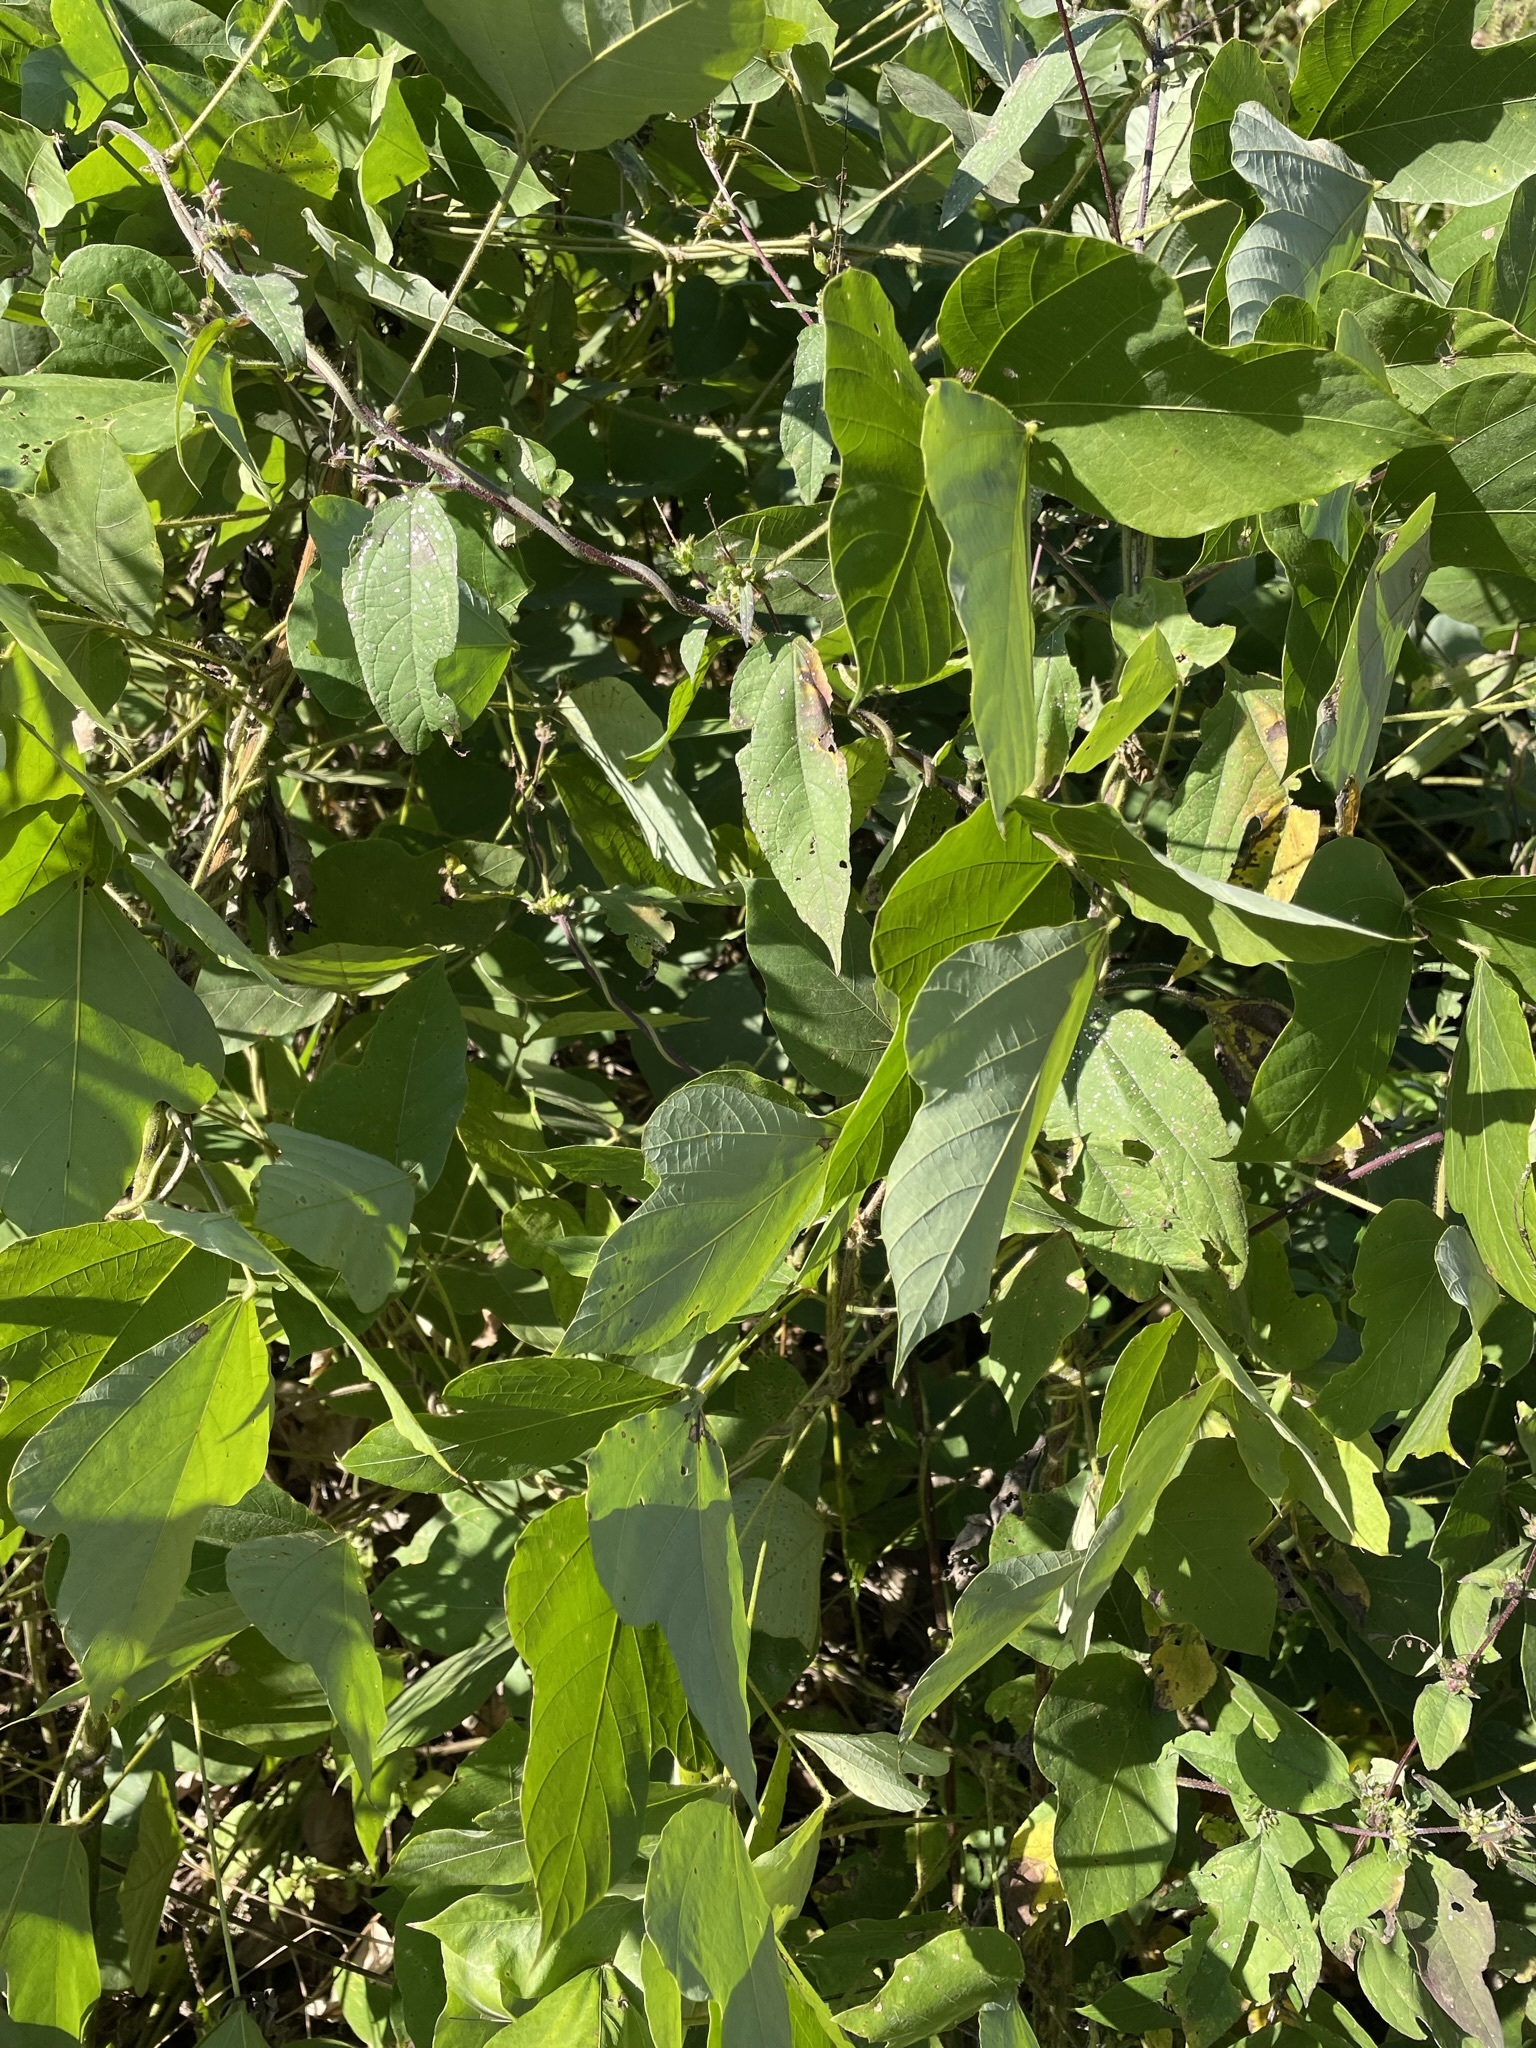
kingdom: Plantae
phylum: Tracheophyta
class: Magnoliopsida
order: Fabales
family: Fabaceae
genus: Pueraria
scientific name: Pueraria montana
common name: Kudzu
